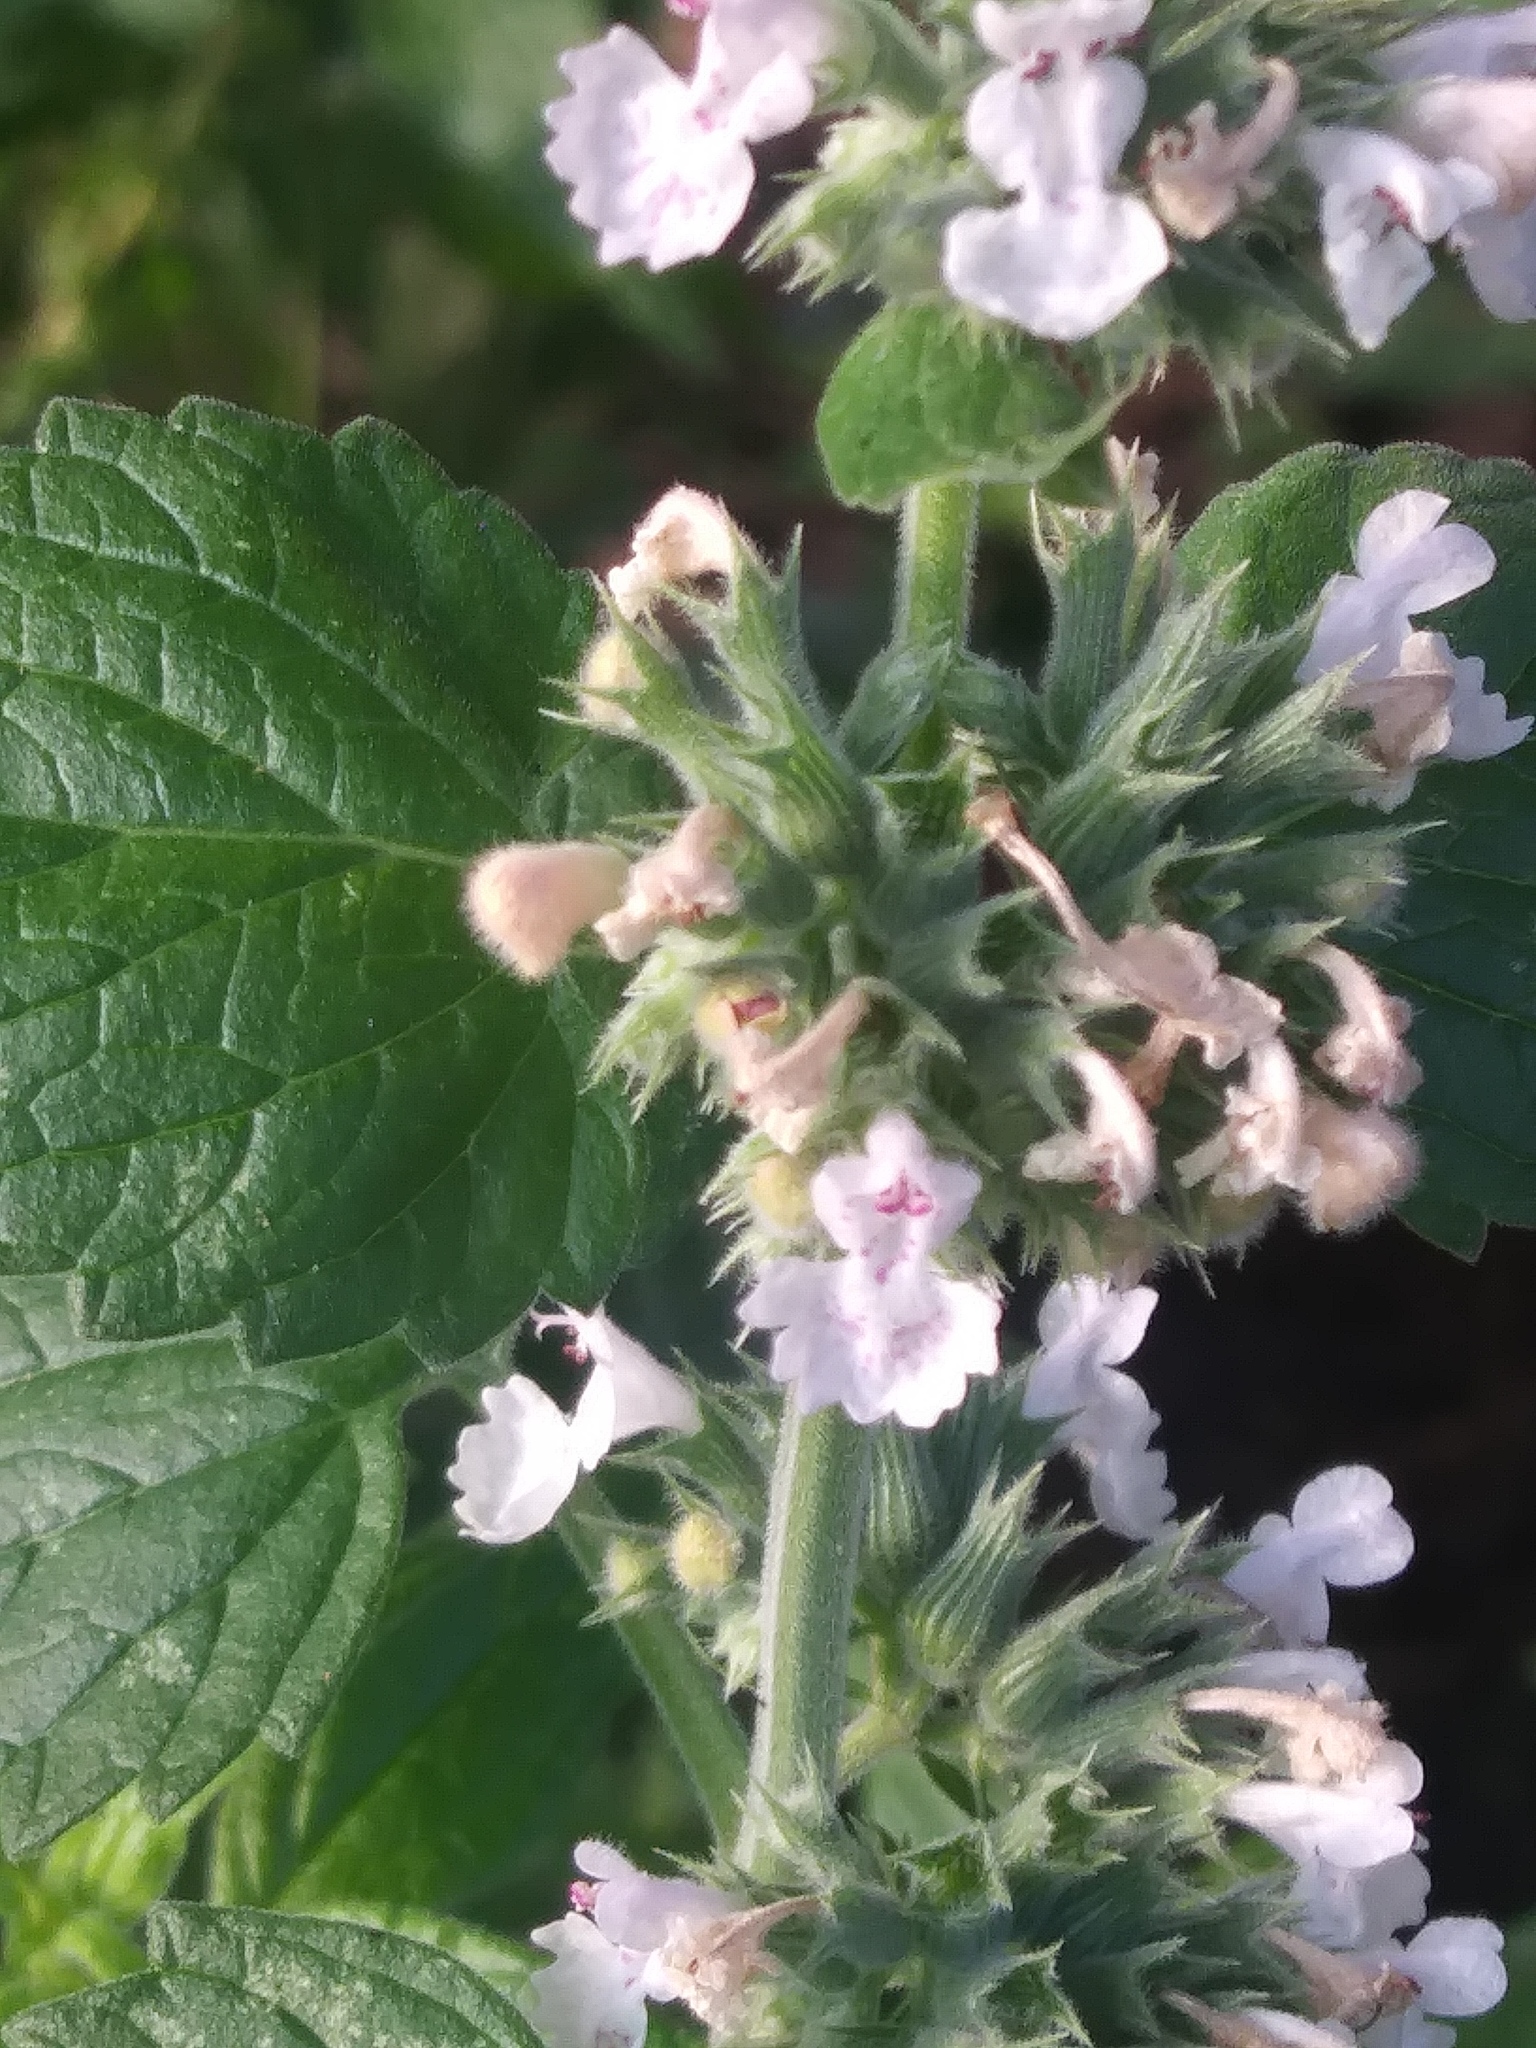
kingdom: Plantae
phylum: Tracheophyta
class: Magnoliopsida
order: Lamiales
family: Lamiaceae
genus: Nepeta
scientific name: Nepeta cataria
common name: Catnip
